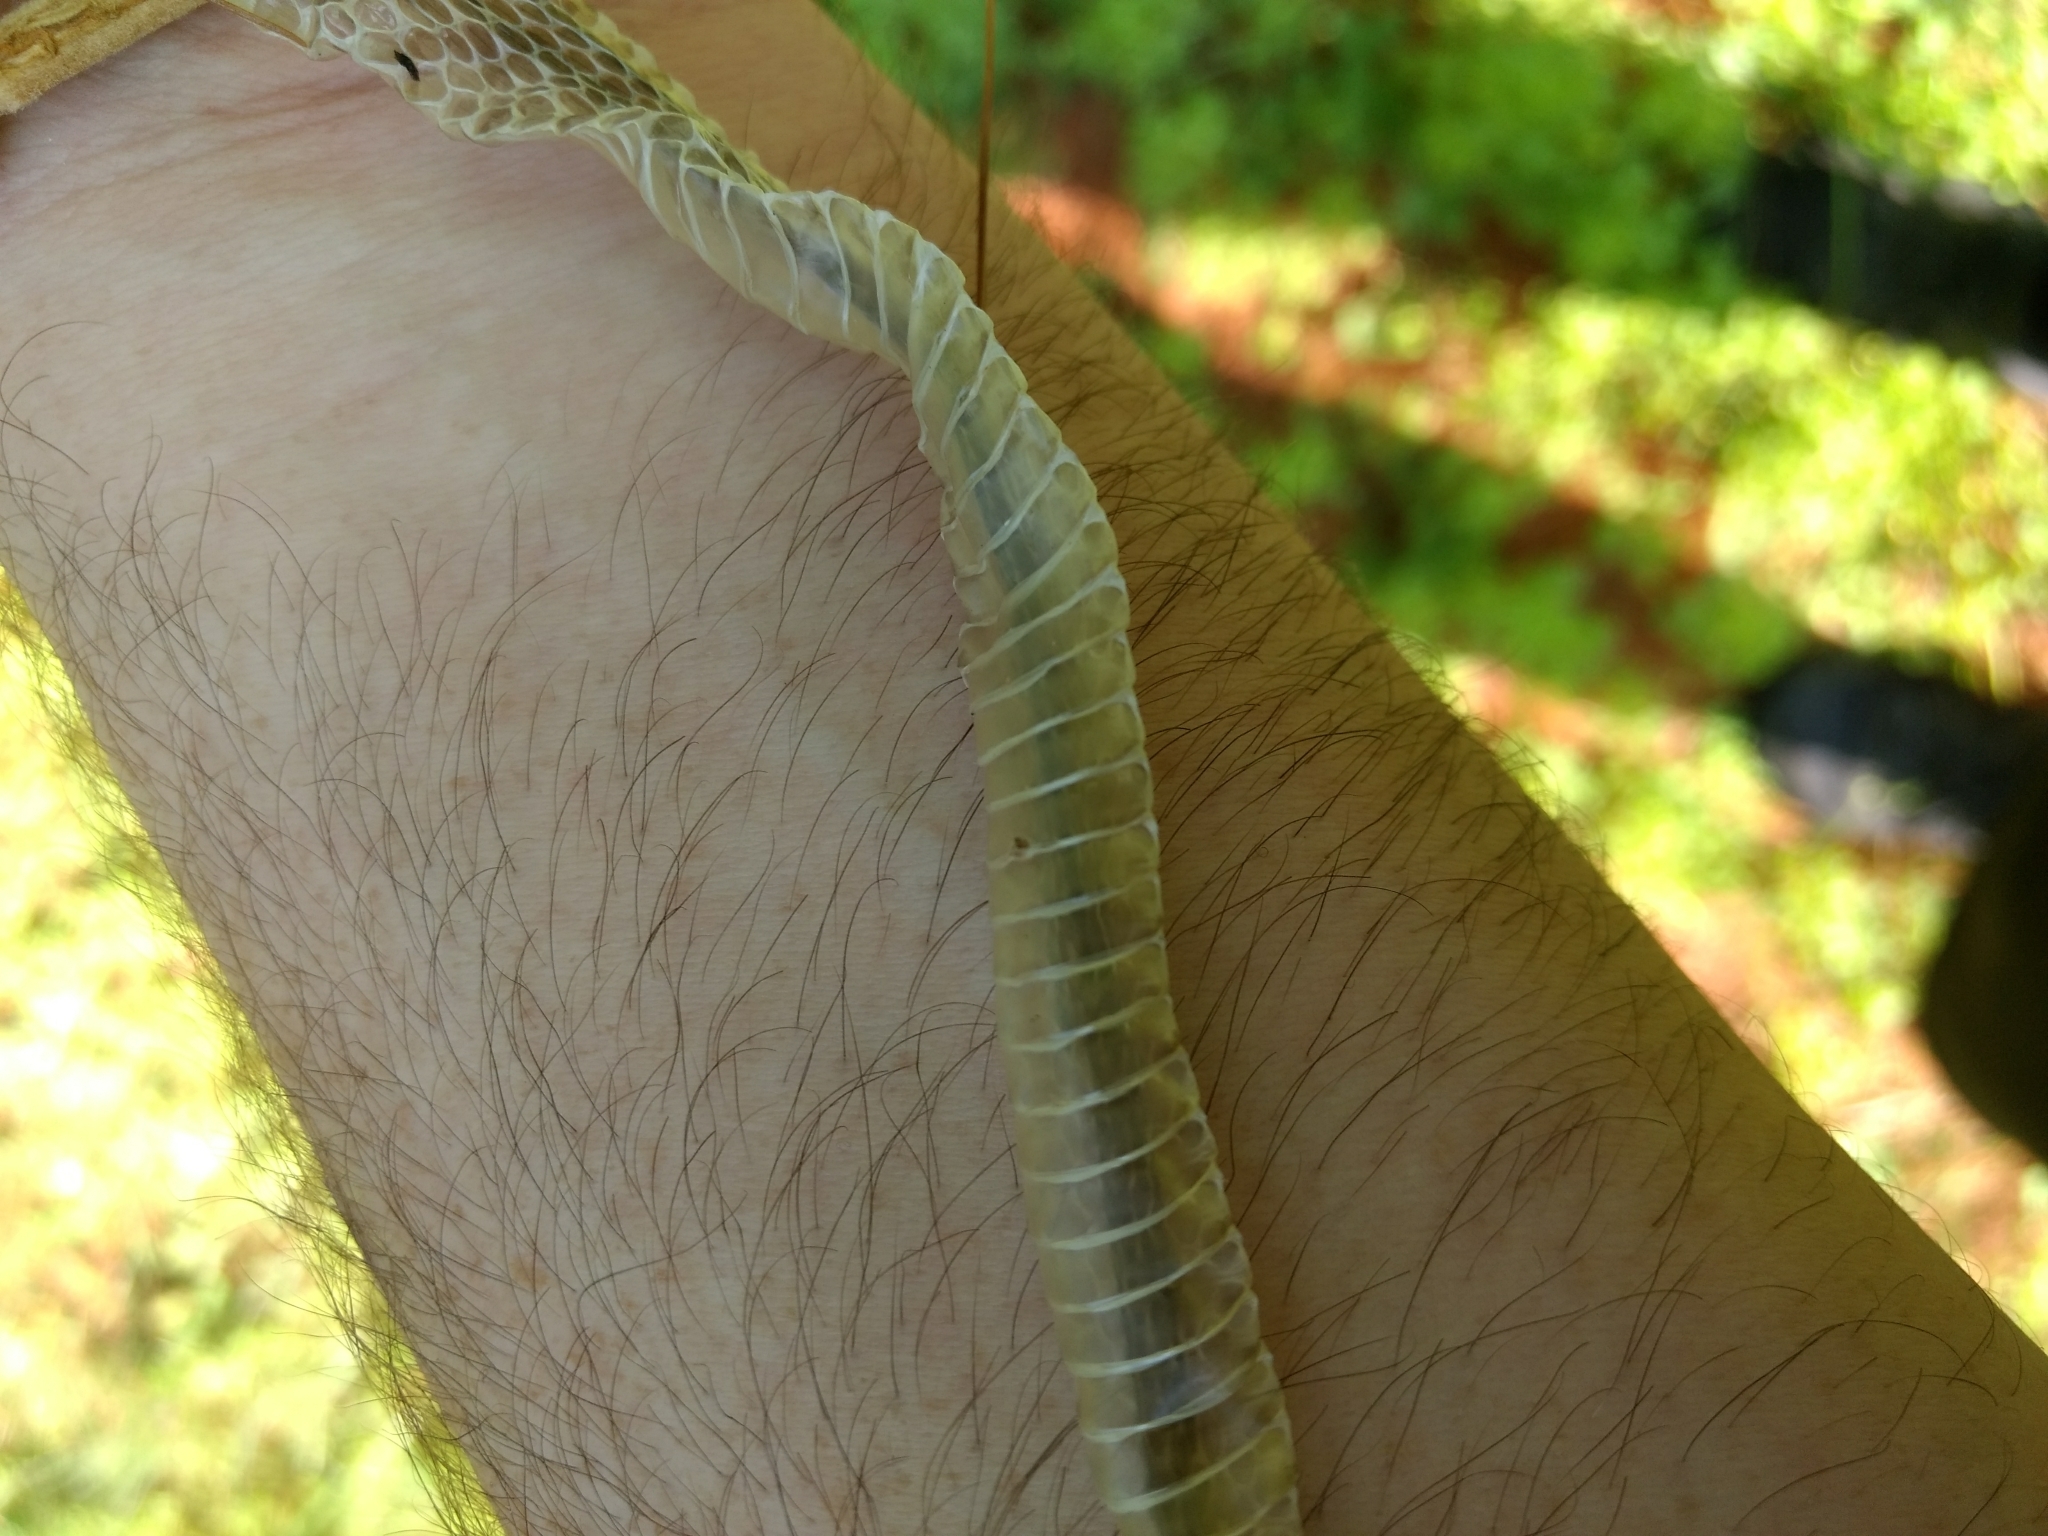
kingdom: Animalia
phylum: Chordata
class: Squamata
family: Colubridae
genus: Thamnophis
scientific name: Thamnophis sirtalis
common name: Common garter snake
